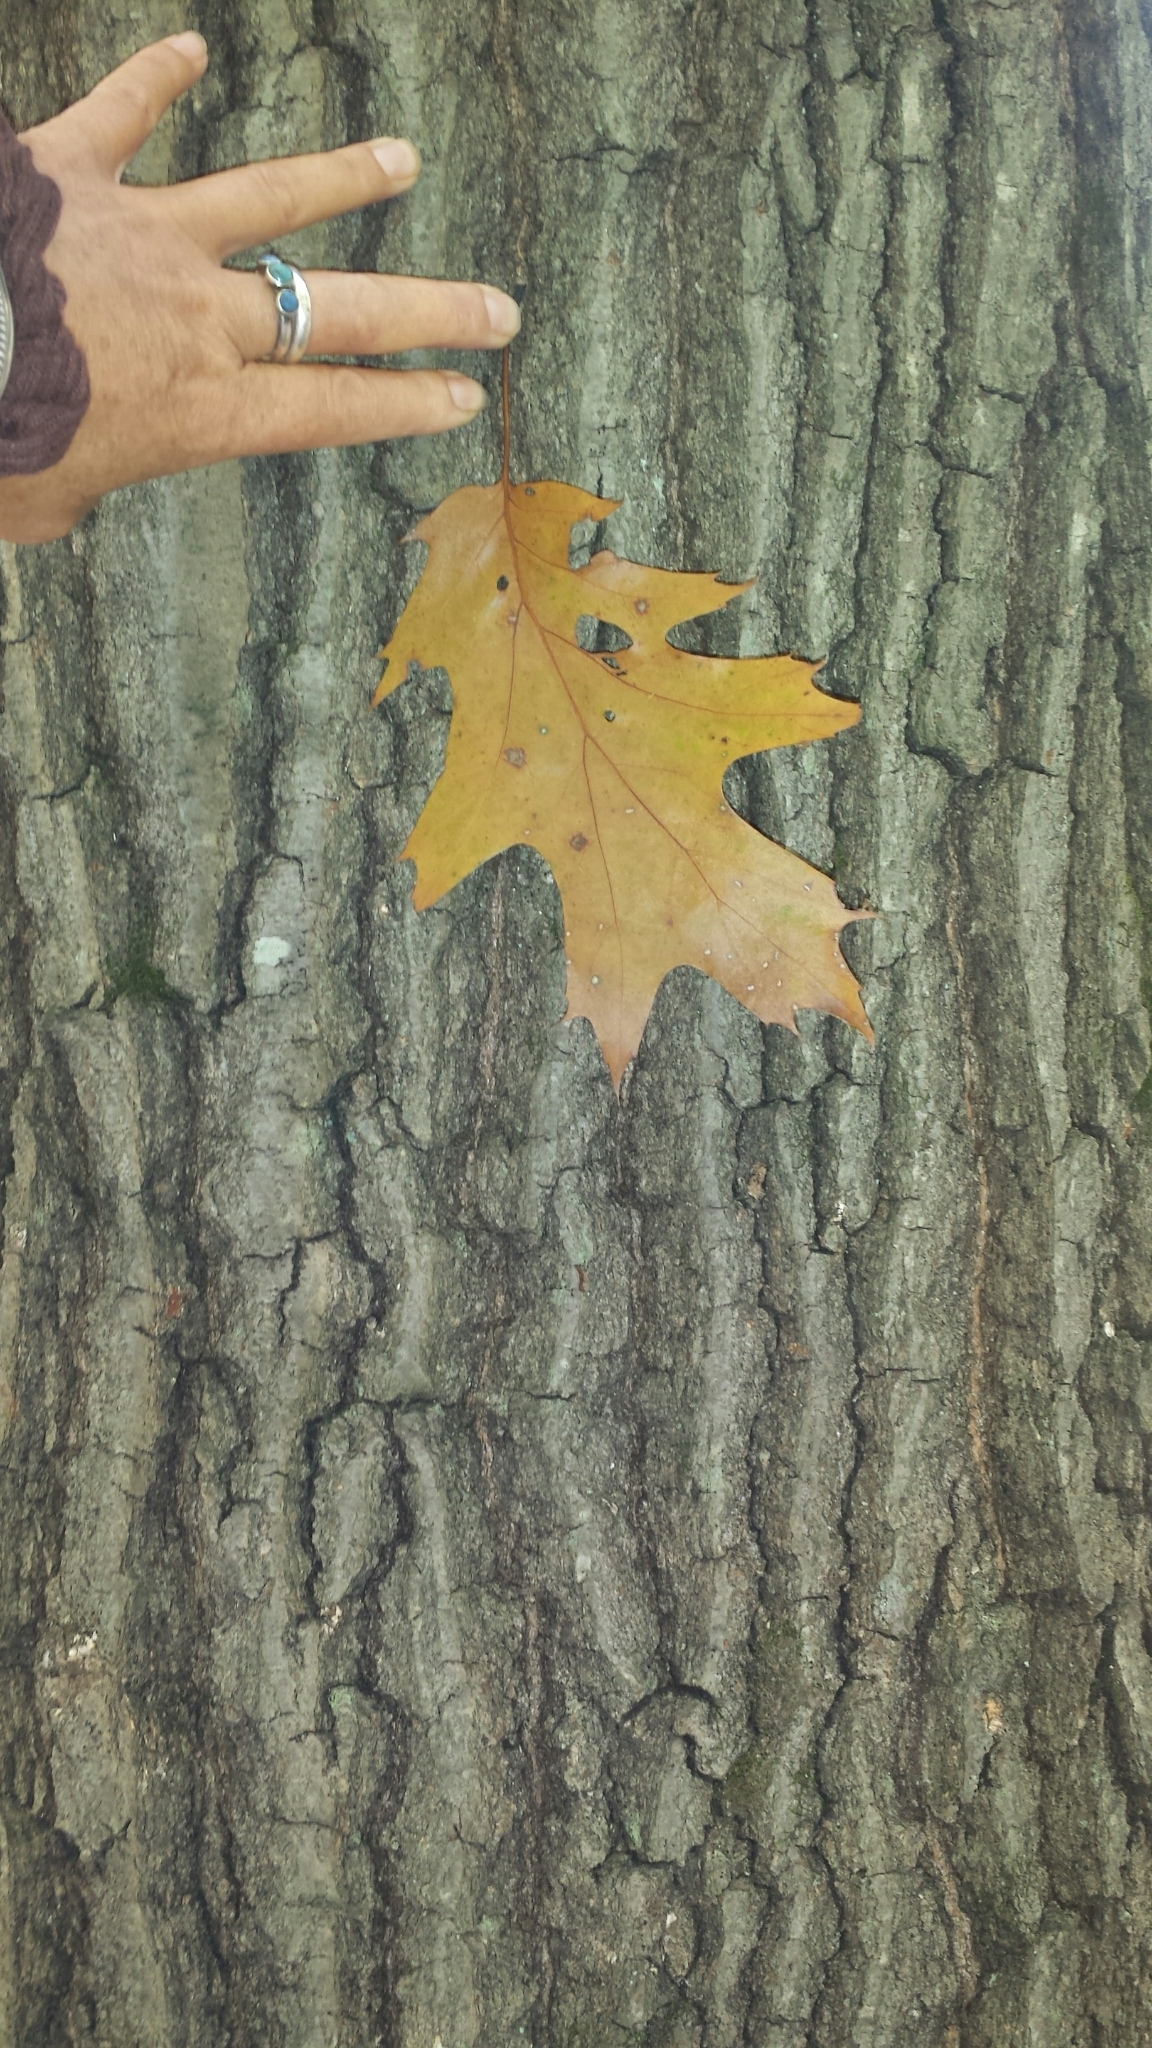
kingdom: Plantae
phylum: Tracheophyta
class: Magnoliopsida
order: Fagales
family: Fagaceae
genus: Quercus
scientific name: Quercus rubra
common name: Red oak
